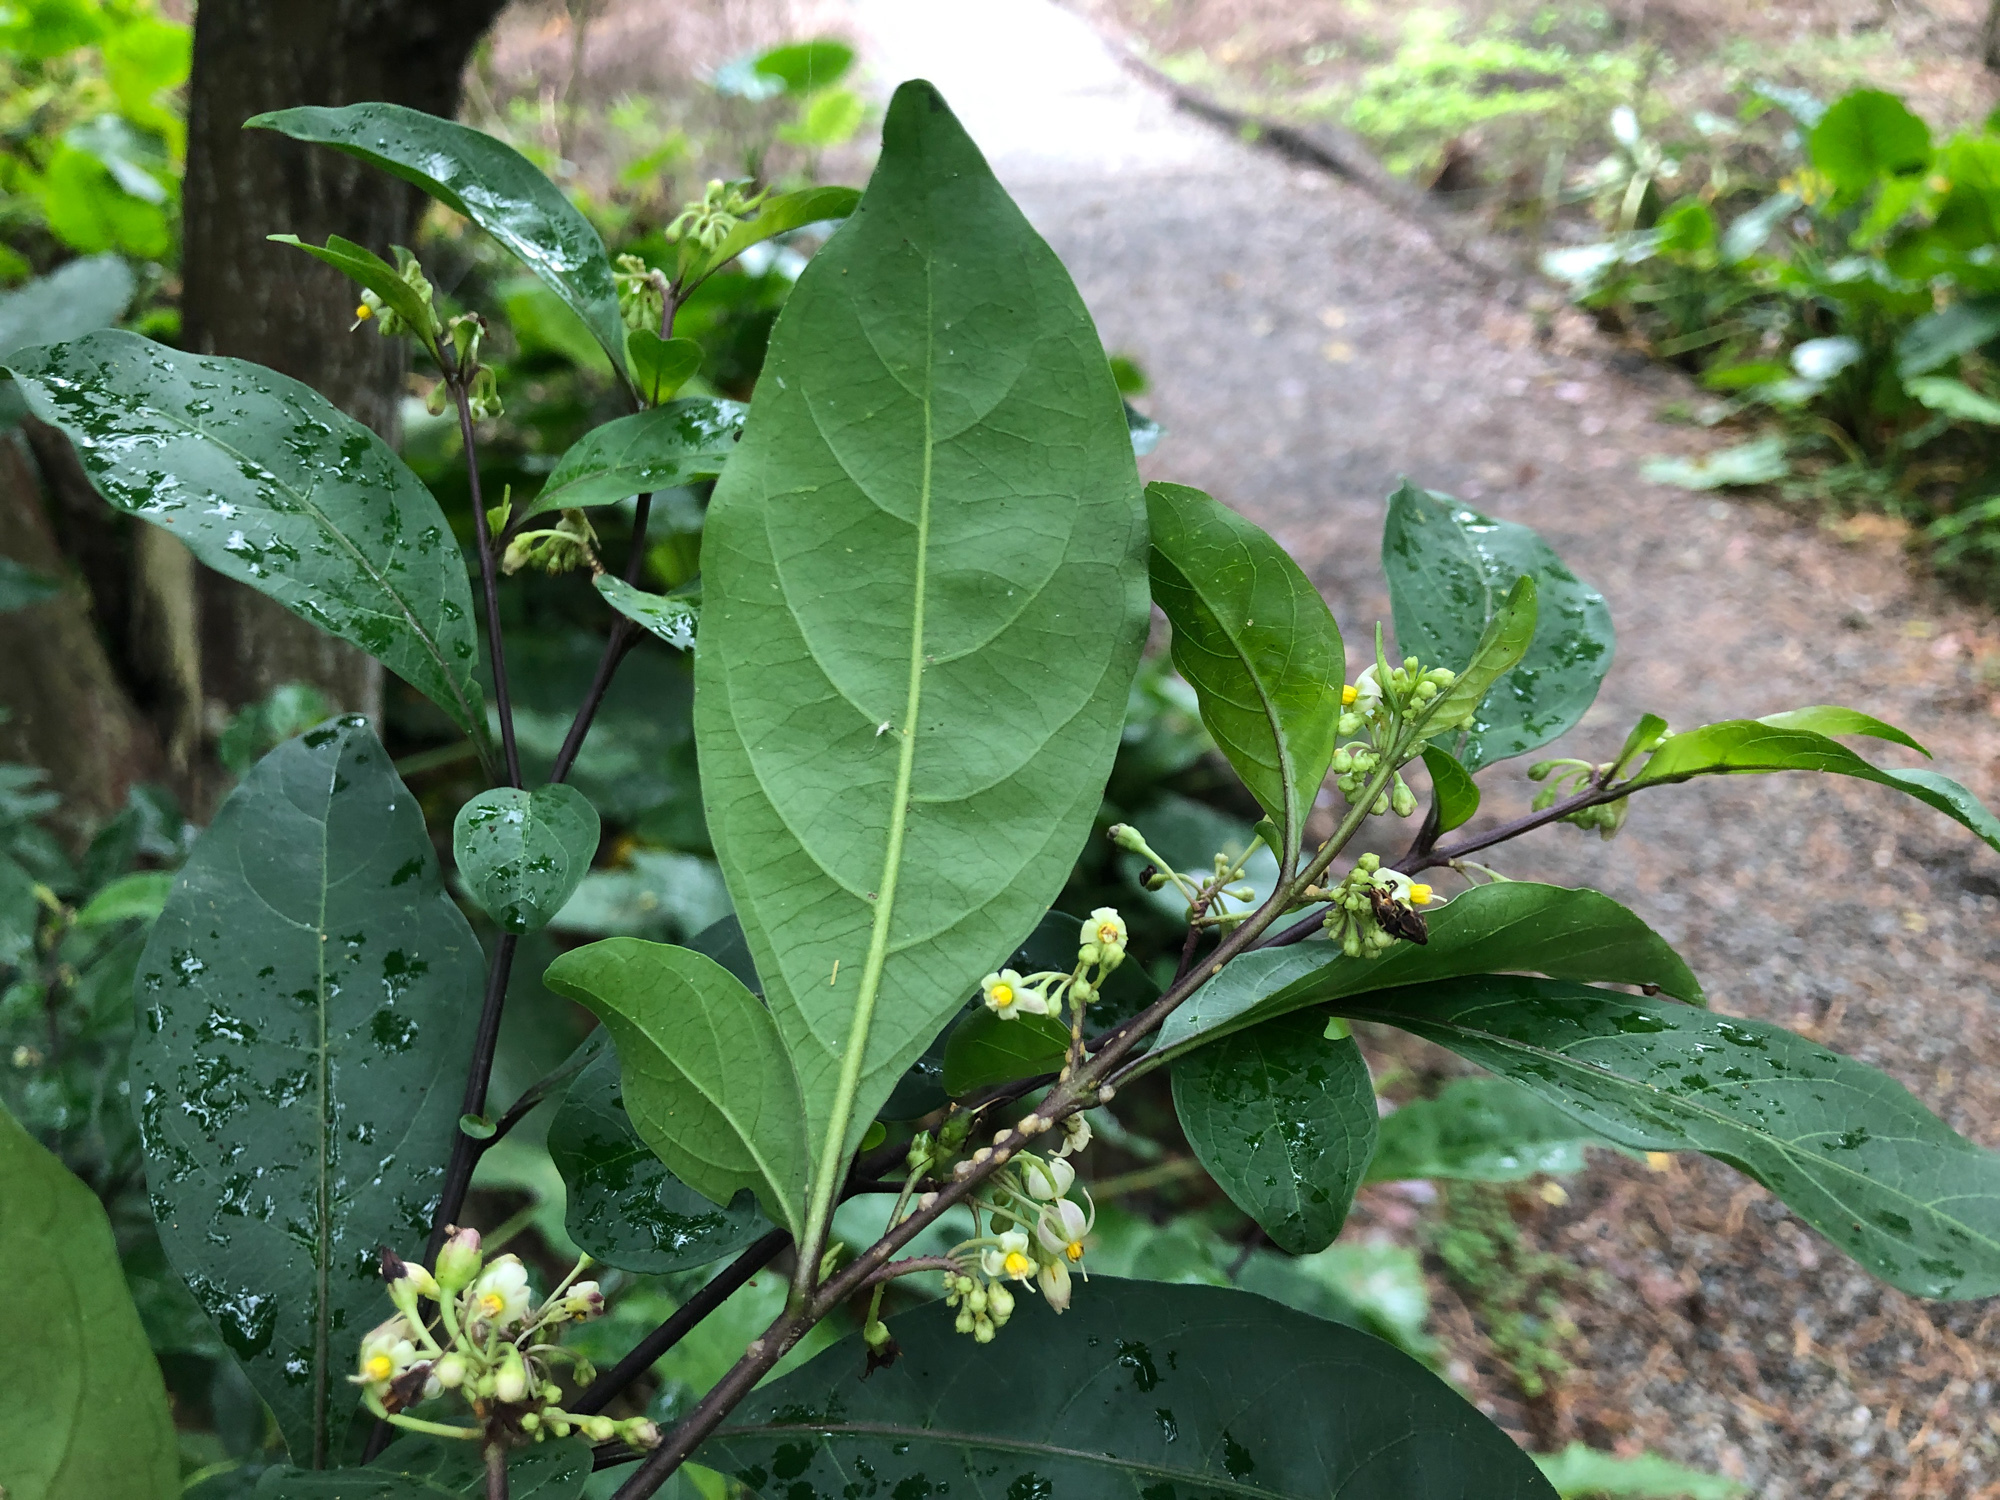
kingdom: Plantae
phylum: Tracheophyta
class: Magnoliopsida
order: Solanales
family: Solanaceae
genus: Solanum
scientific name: Solanum diphyllum
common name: Twoleaf nightshade
